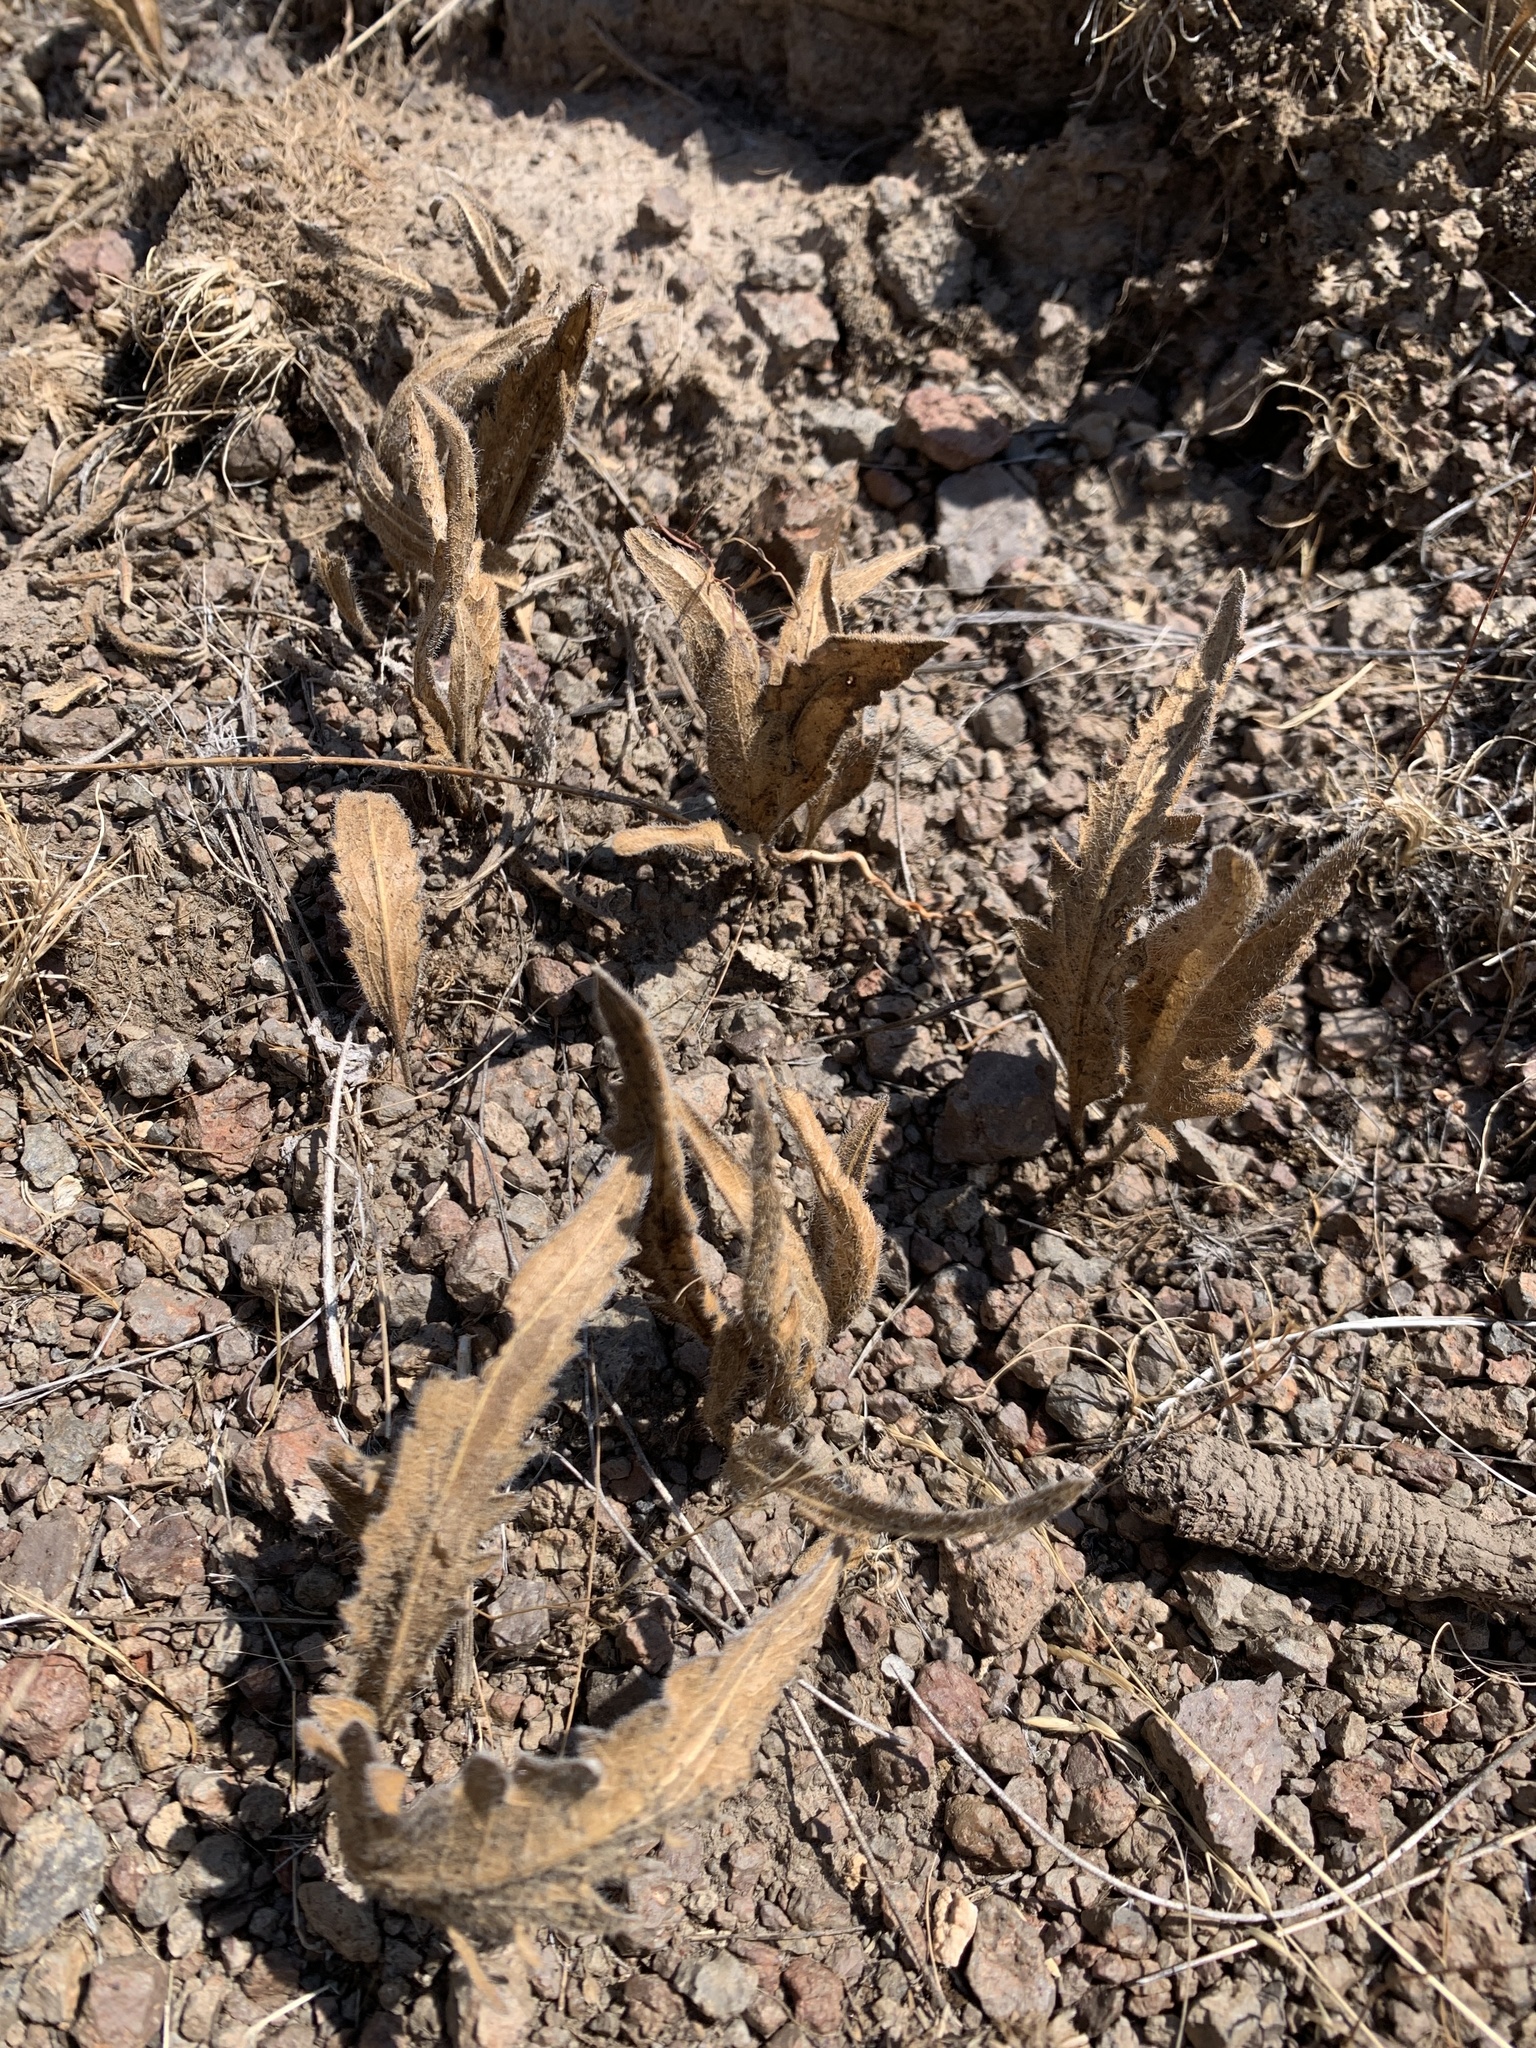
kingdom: Plantae
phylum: Tracheophyta
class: Magnoliopsida
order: Asterales
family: Asteraceae
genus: Balsamorhiza
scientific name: Balsamorhiza serrata
